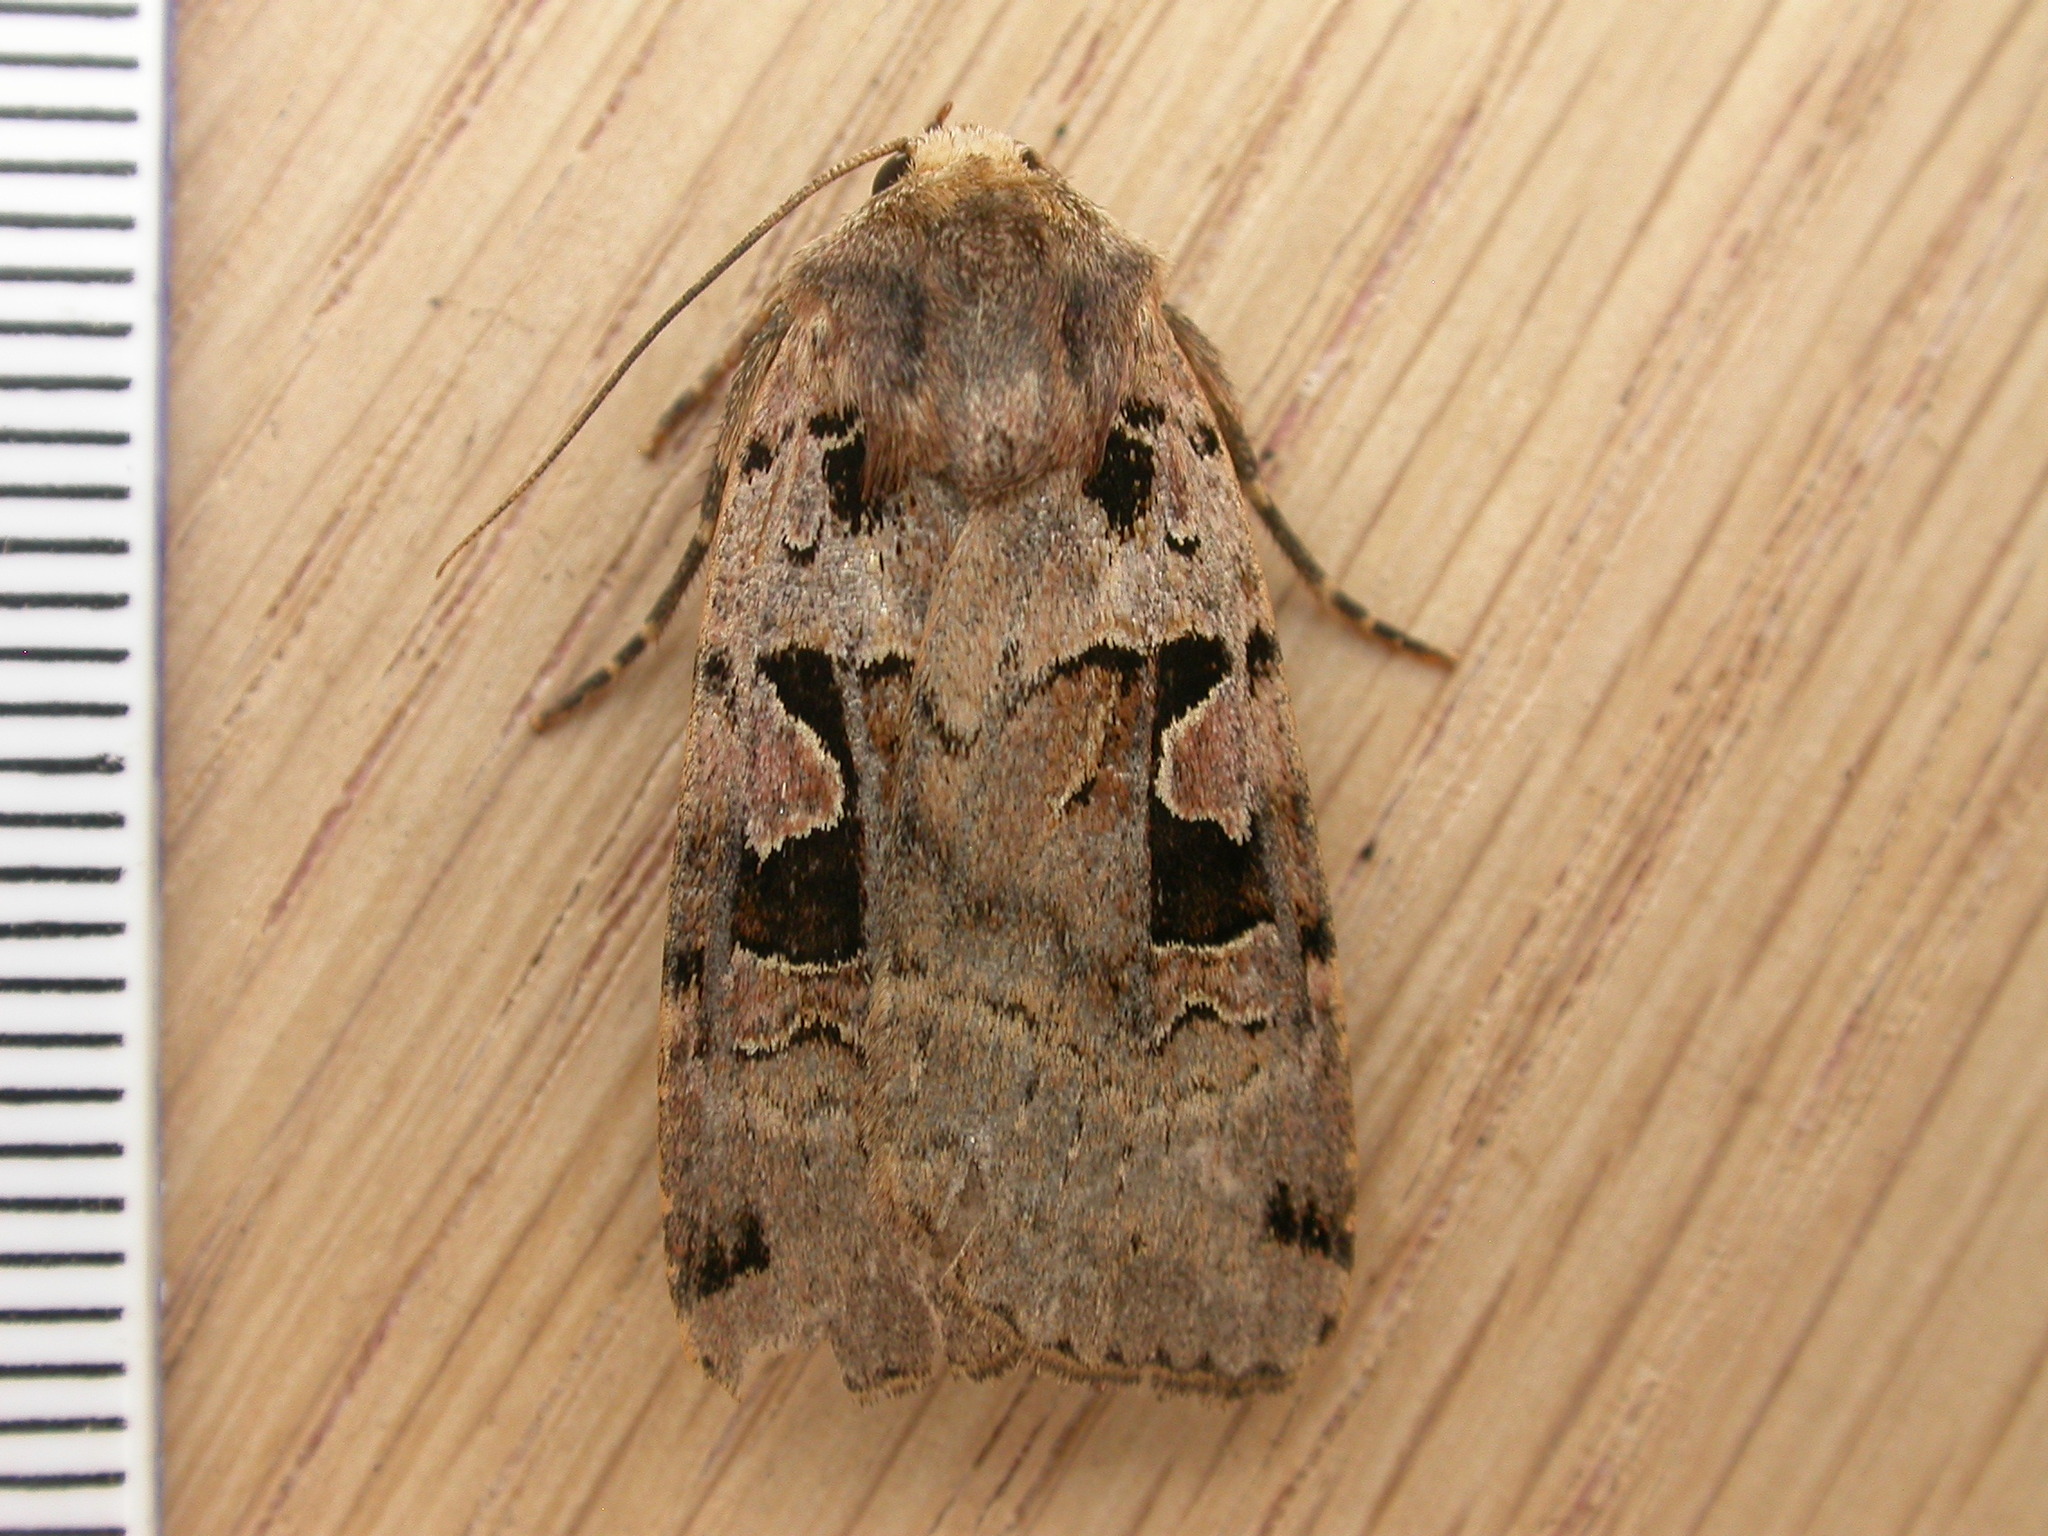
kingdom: Animalia
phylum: Arthropoda
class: Insecta
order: Lepidoptera
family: Noctuidae
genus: Xestia
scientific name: Xestia triangulum
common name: Double square-spot
